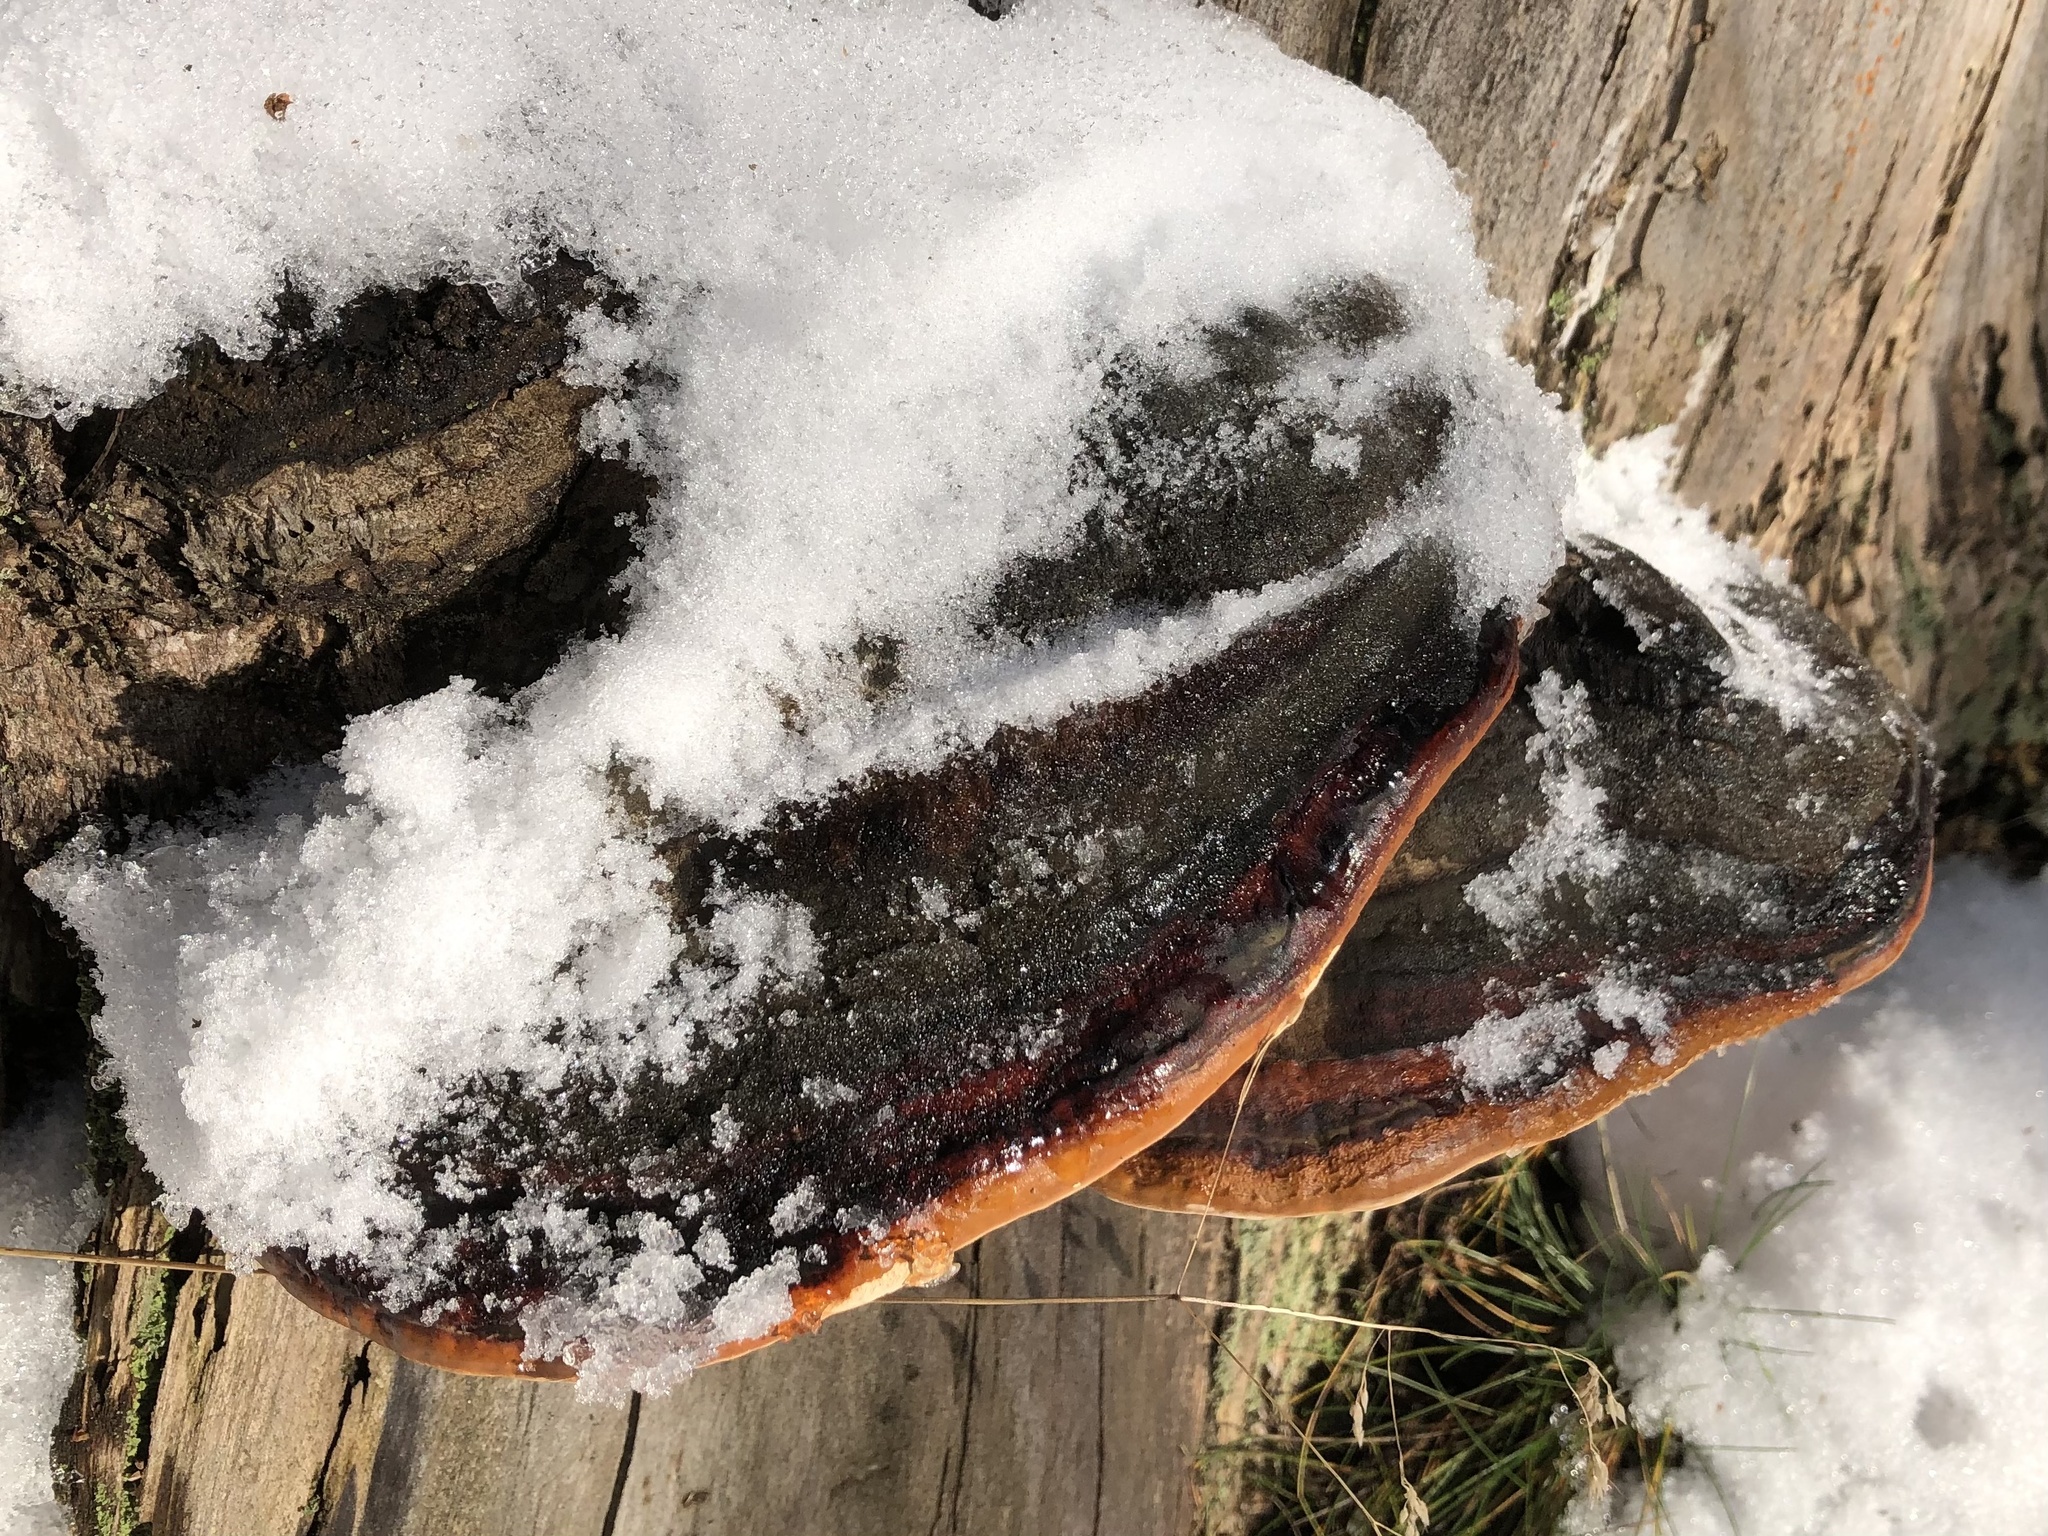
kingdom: Fungi
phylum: Basidiomycota
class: Agaricomycetes
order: Polyporales
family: Fomitopsidaceae
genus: Fomitopsis
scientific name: Fomitopsis pinicola
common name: Red-belted bracket
